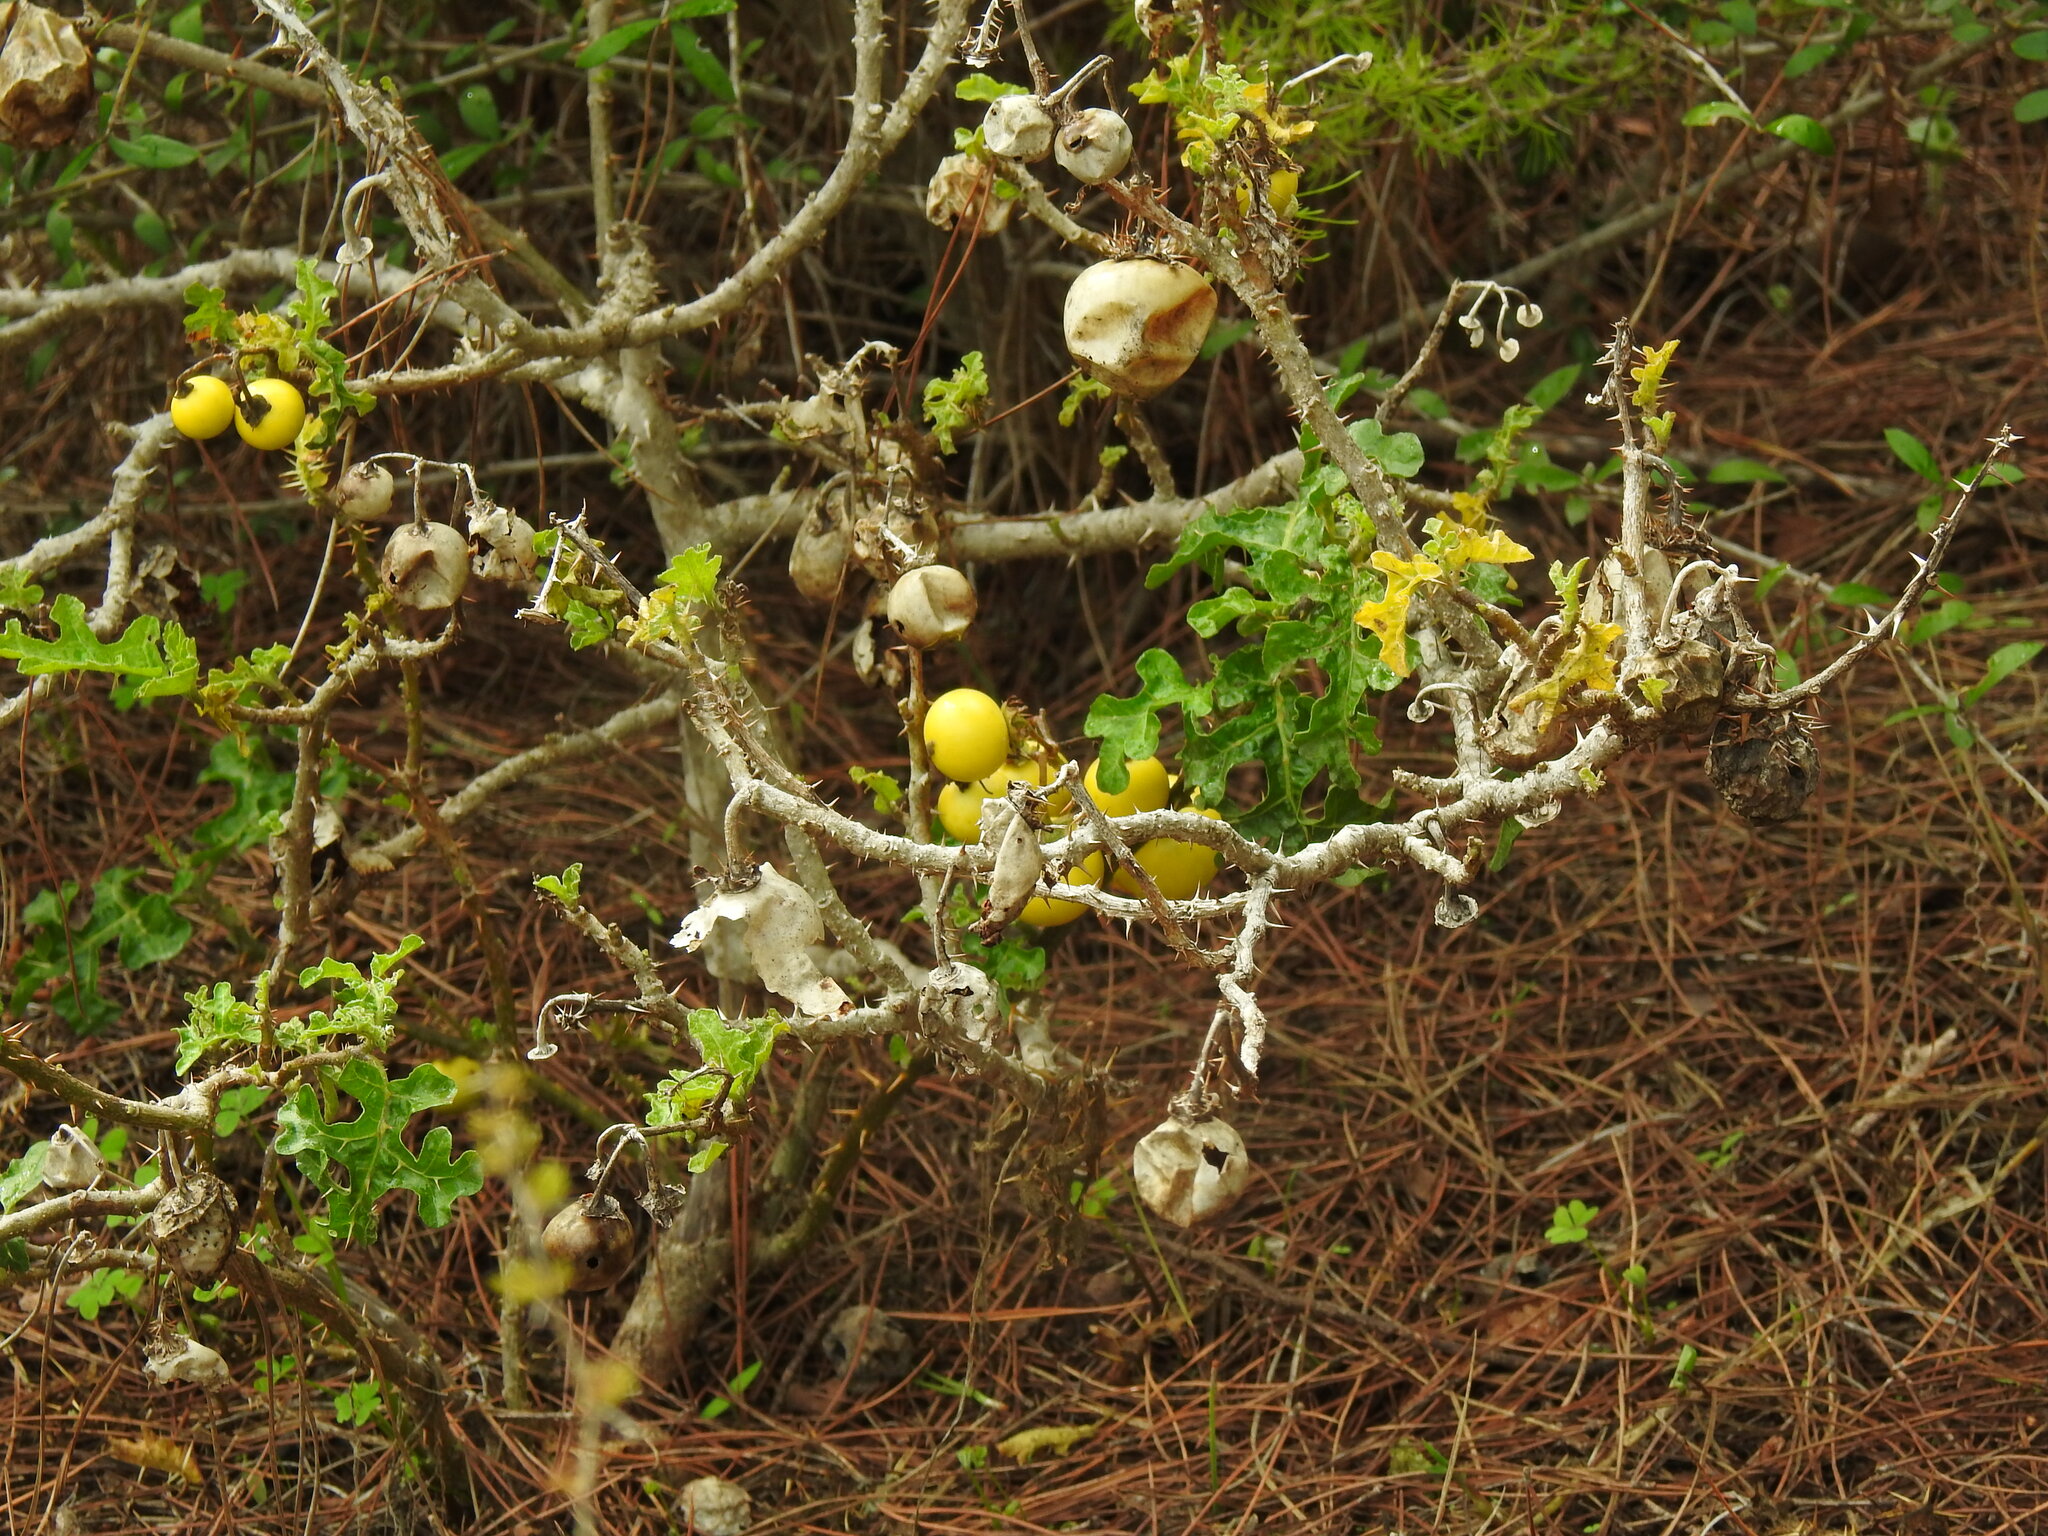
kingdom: Plantae
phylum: Tracheophyta
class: Magnoliopsida
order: Solanales
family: Solanaceae
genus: Solanum
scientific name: Solanum linnaeanum
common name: Nightshade
